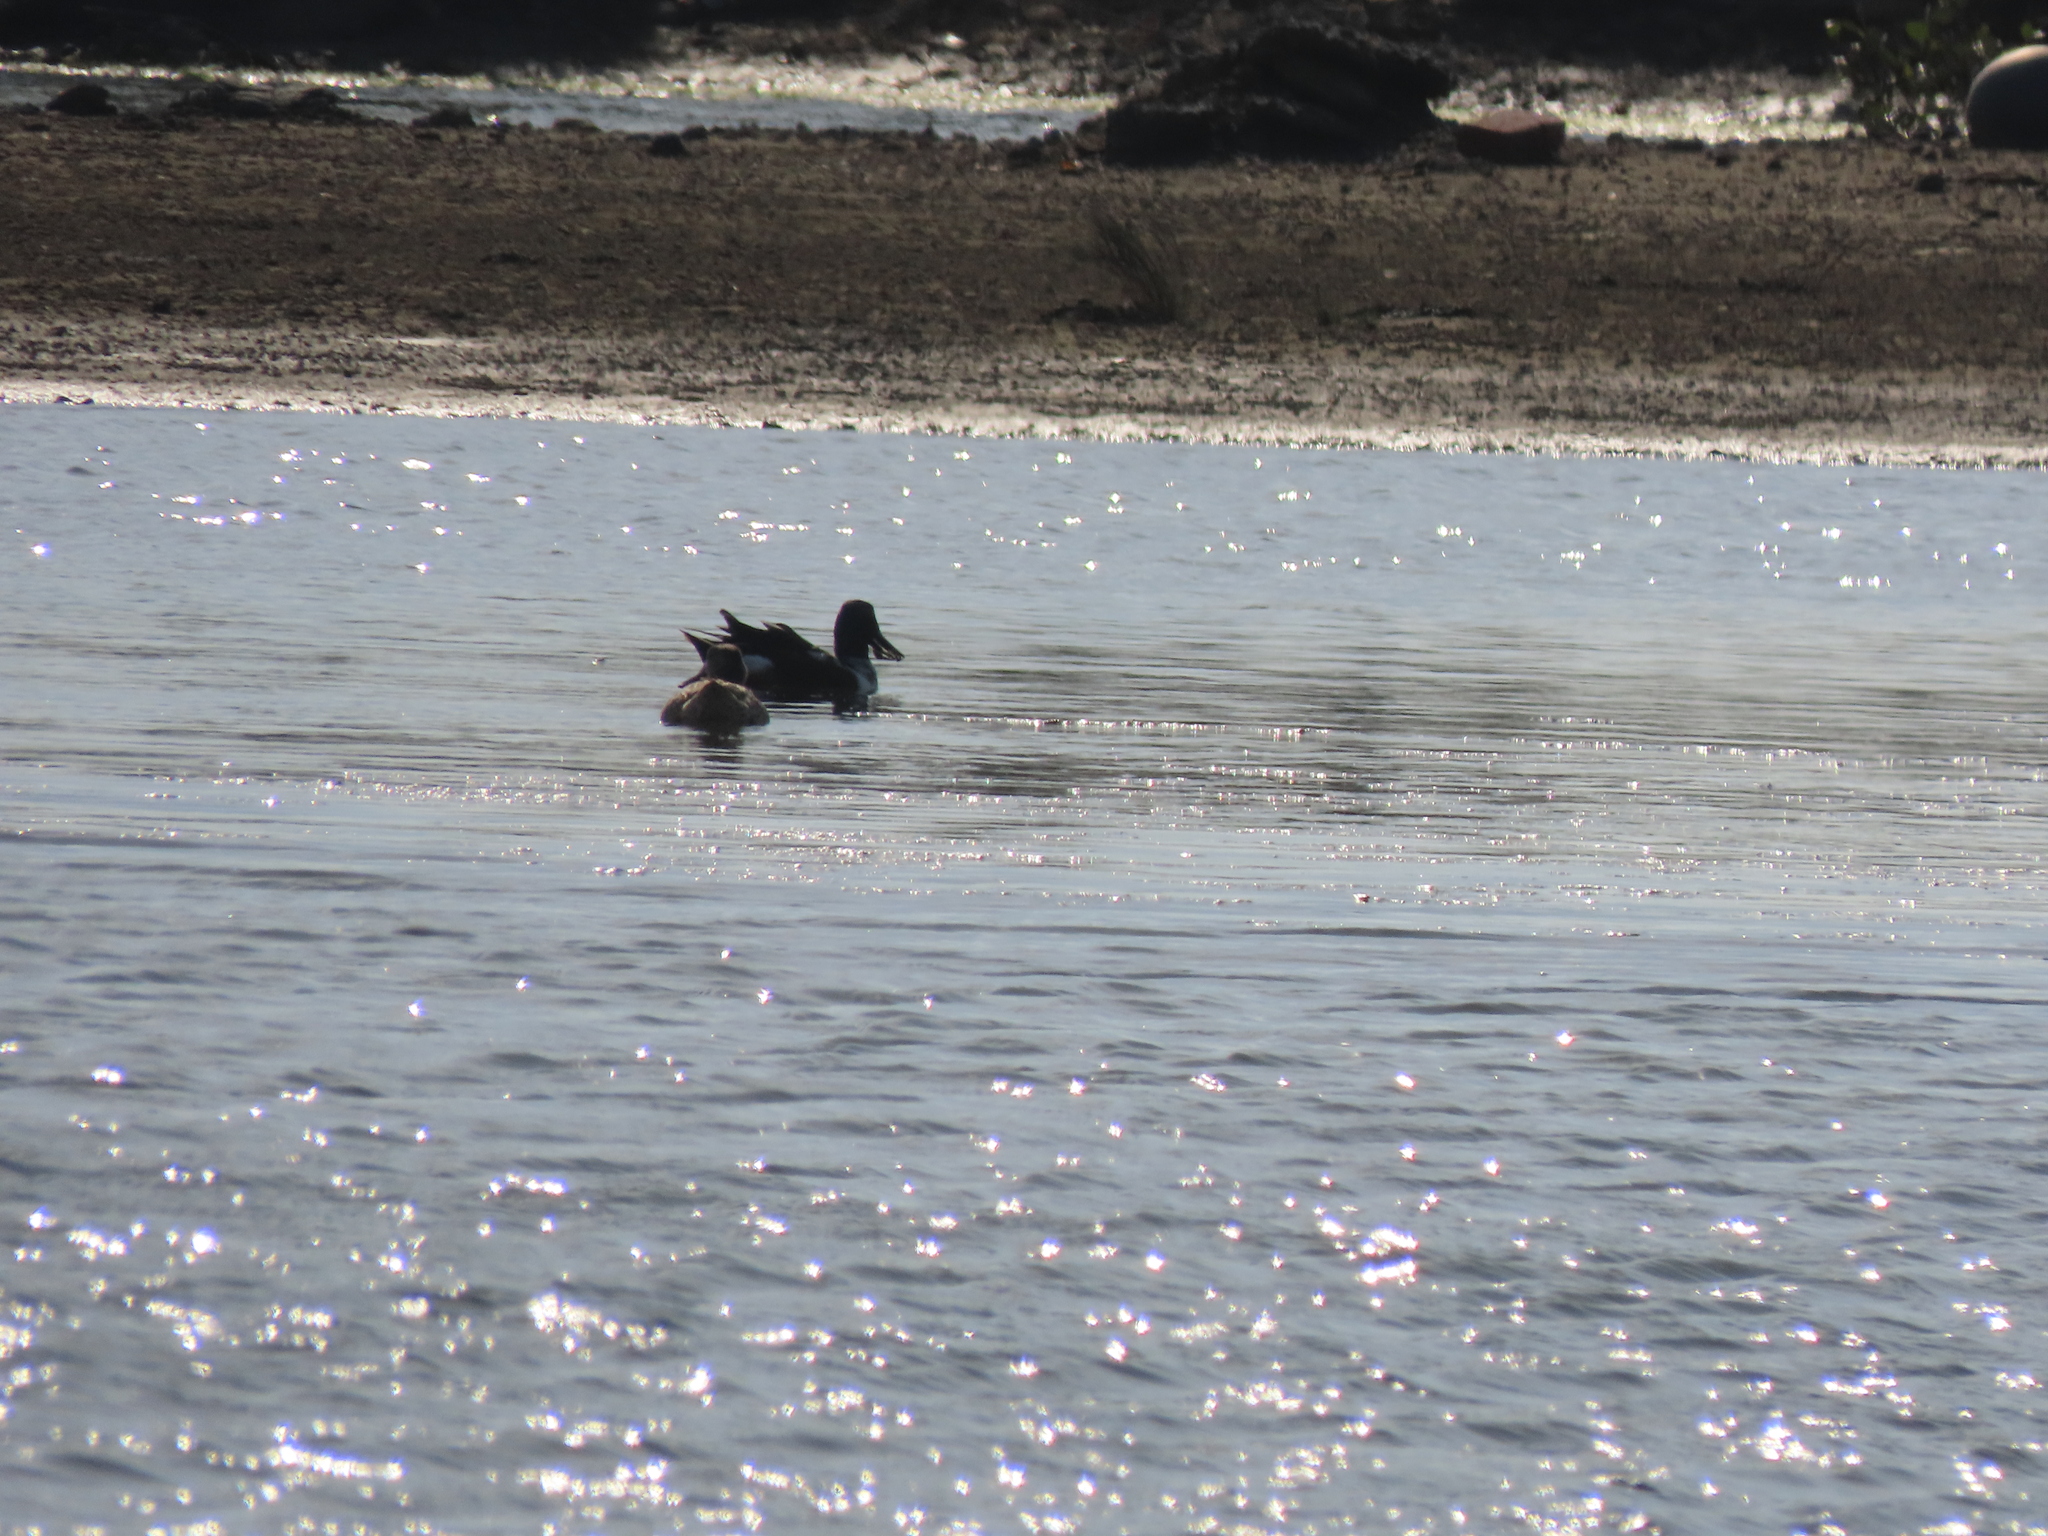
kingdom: Animalia
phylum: Chordata
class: Aves
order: Anseriformes
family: Anatidae
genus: Spatula
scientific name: Spatula clypeata
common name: Northern shoveler
